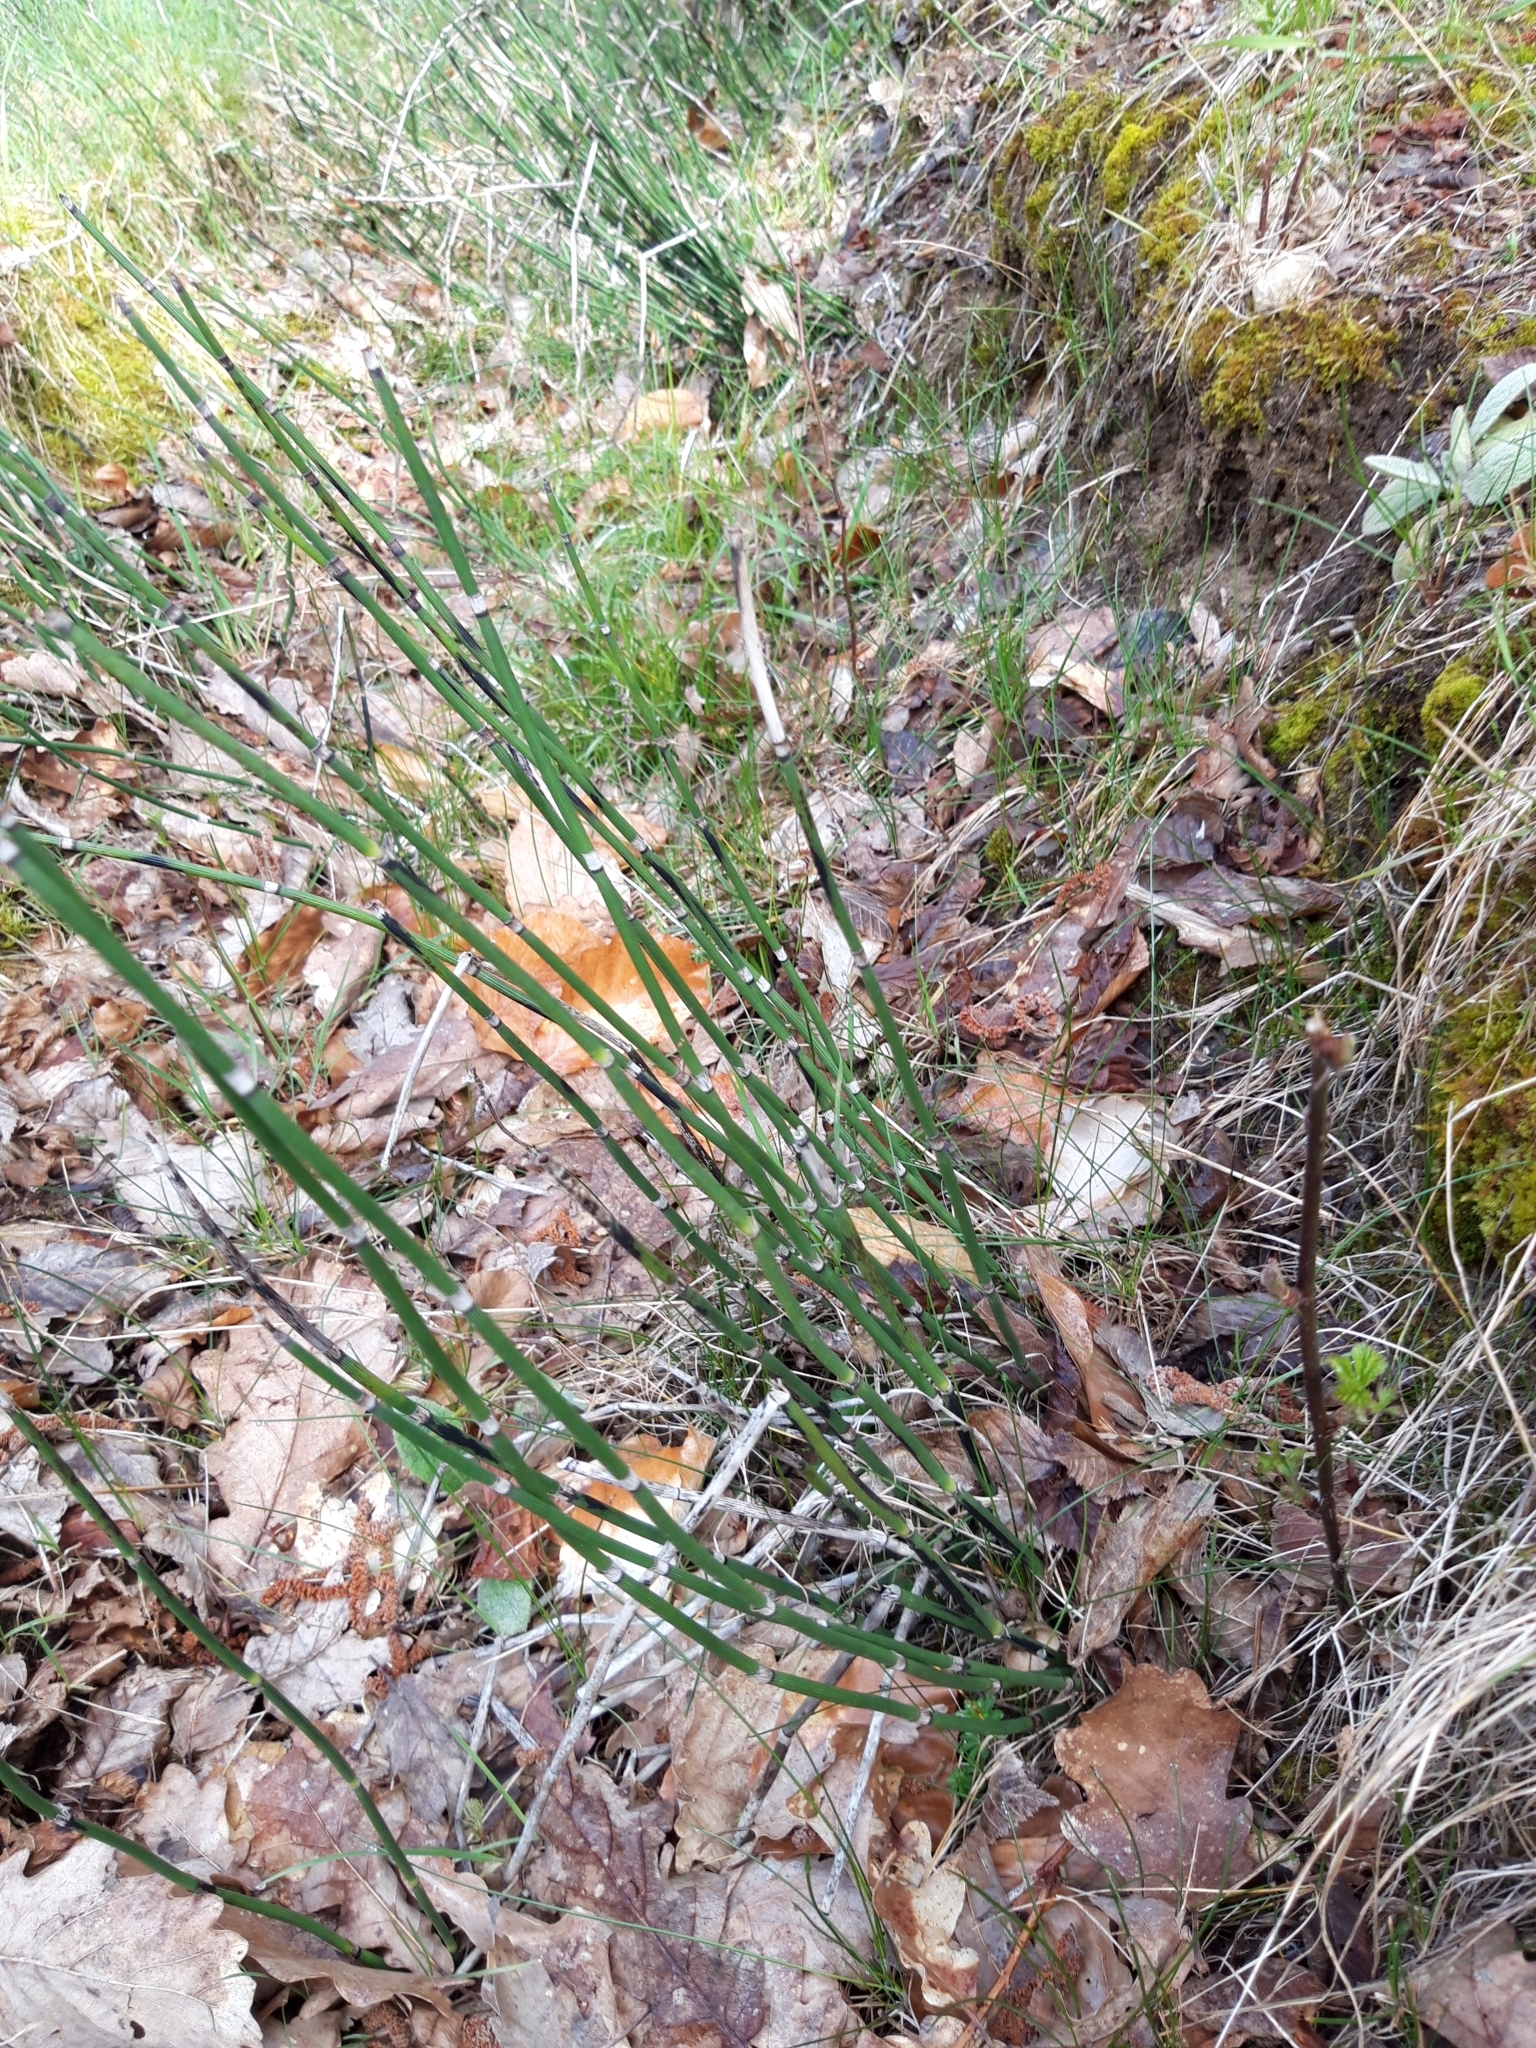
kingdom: Plantae
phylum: Tracheophyta
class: Polypodiopsida
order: Equisetales
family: Equisetaceae
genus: Equisetum
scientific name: Equisetum hyemale
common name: Rough horsetail
